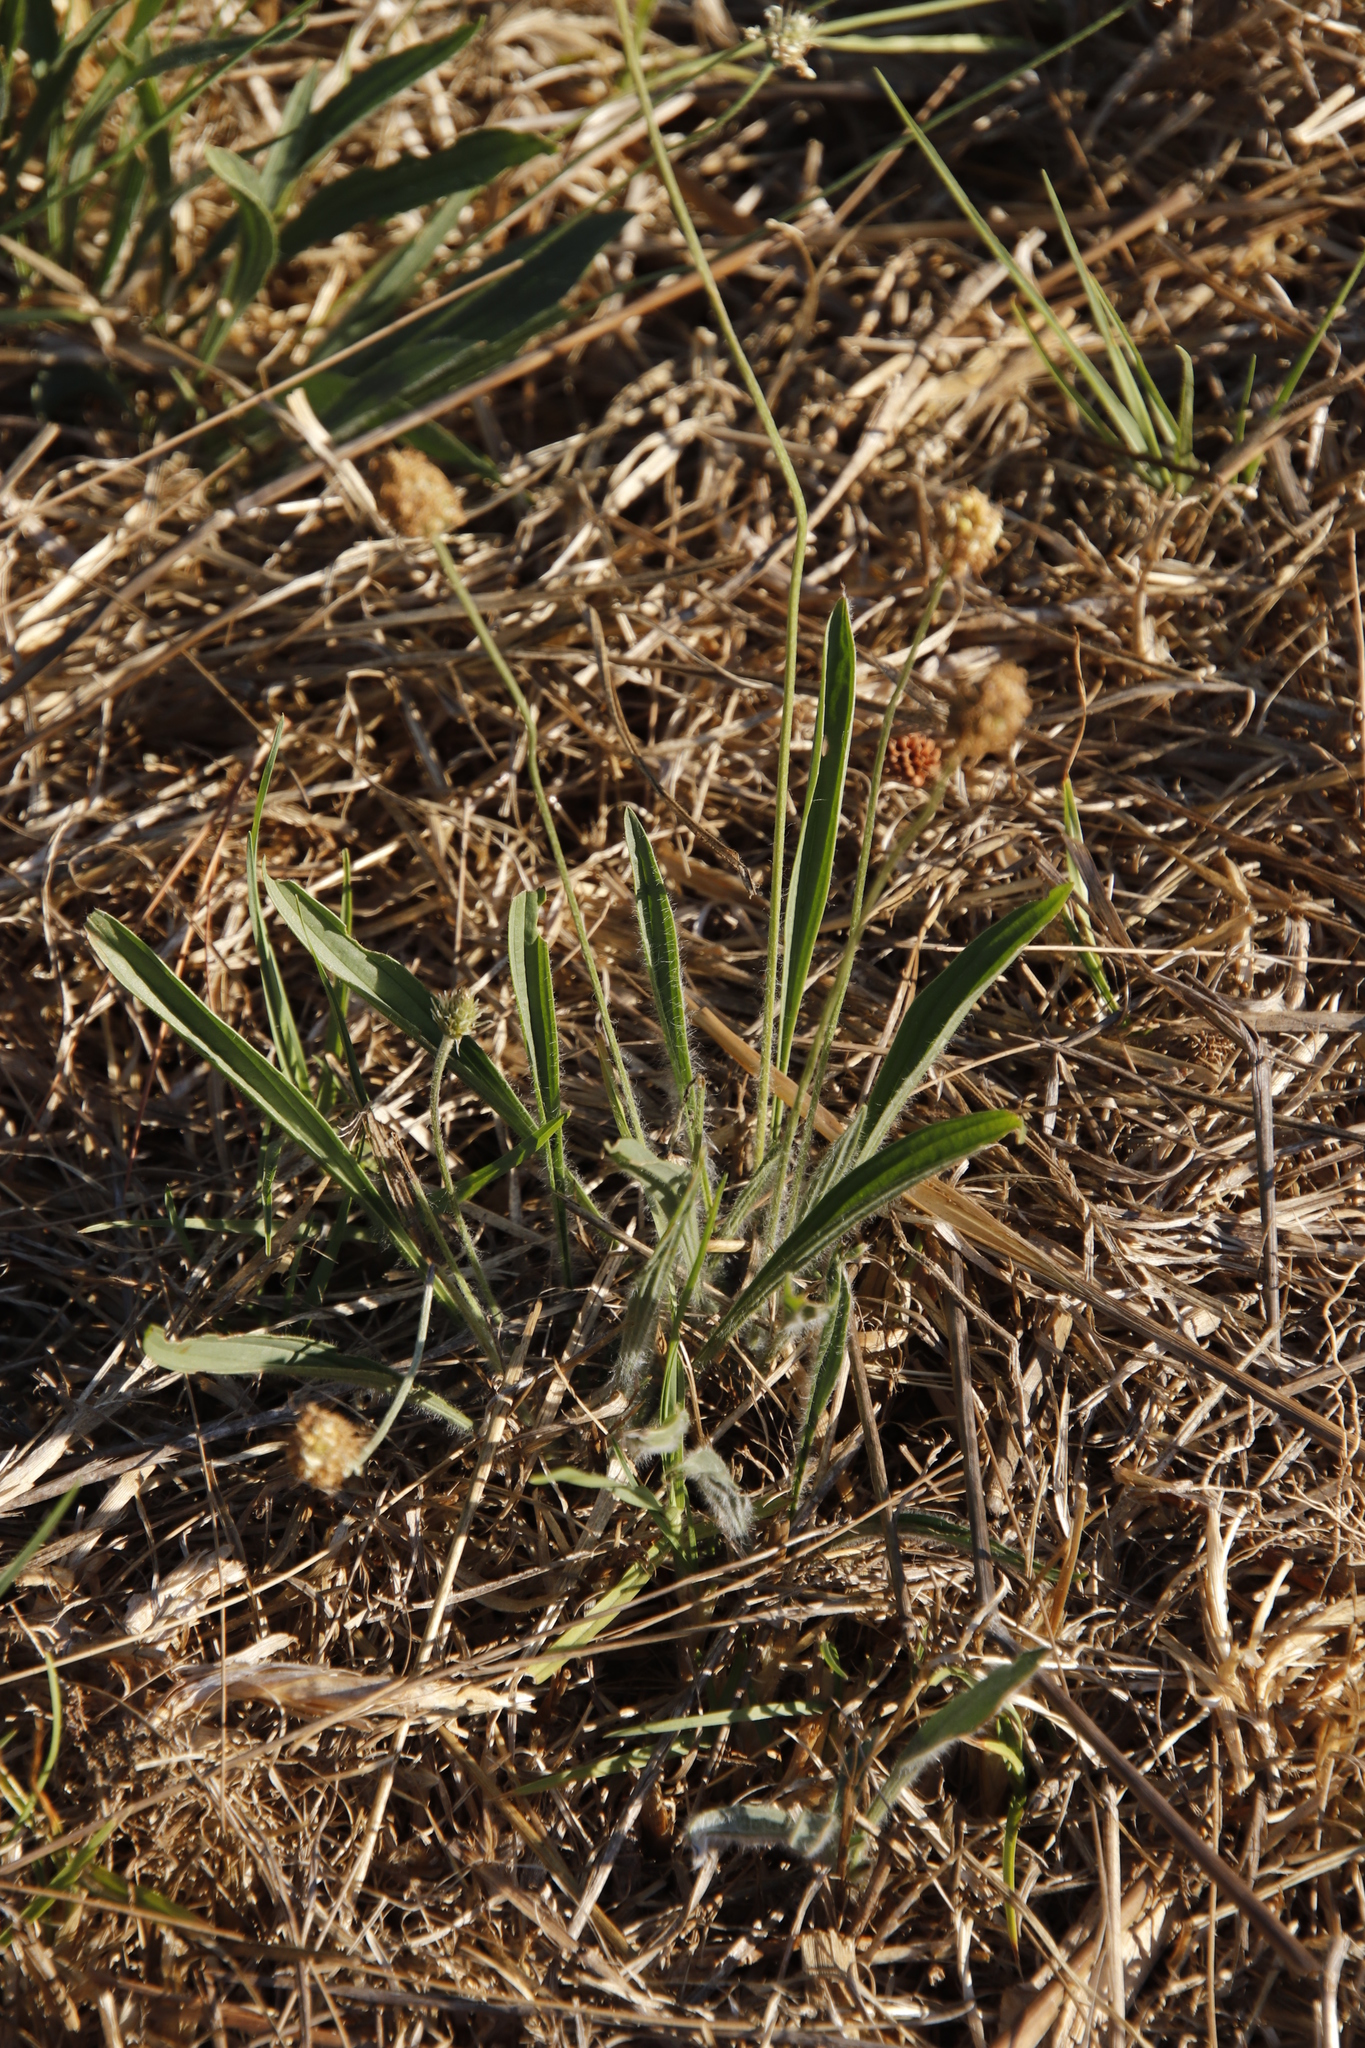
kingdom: Plantae
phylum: Tracheophyta
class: Magnoliopsida
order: Lamiales
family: Plantaginaceae
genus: Plantago
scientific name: Plantago lanceolata
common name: Ribwort plantain
